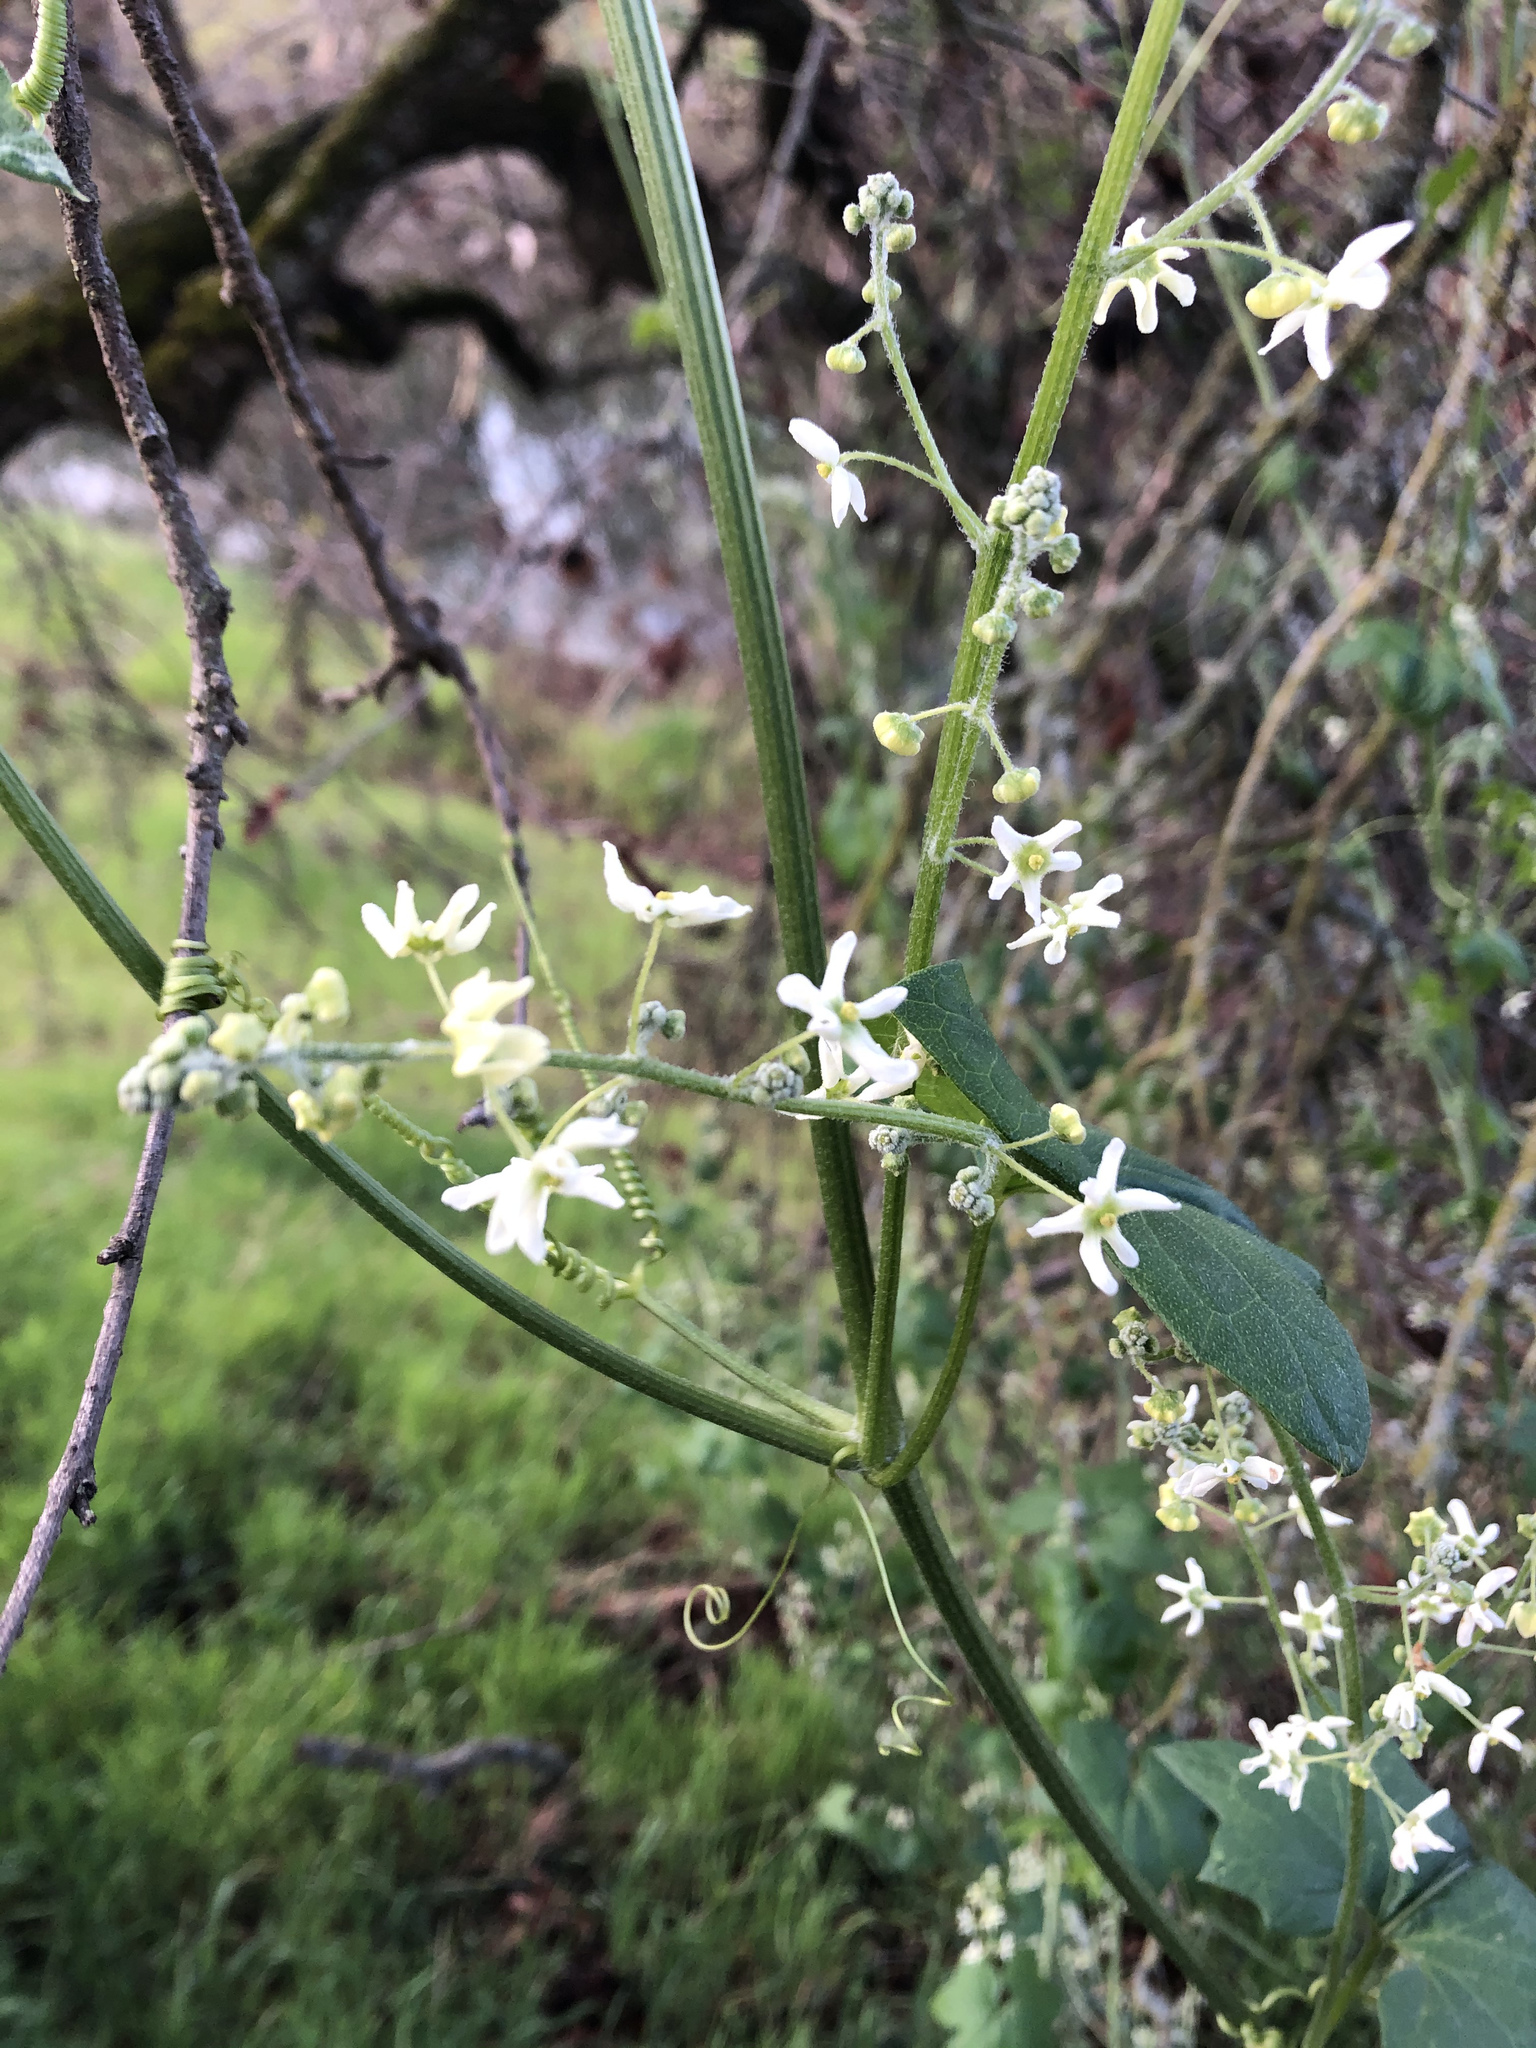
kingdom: Plantae
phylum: Tracheophyta
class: Magnoliopsida
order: Cucurbitales
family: Cucurbitaceae
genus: Marah
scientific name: Marah fabacea
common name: California manroot
